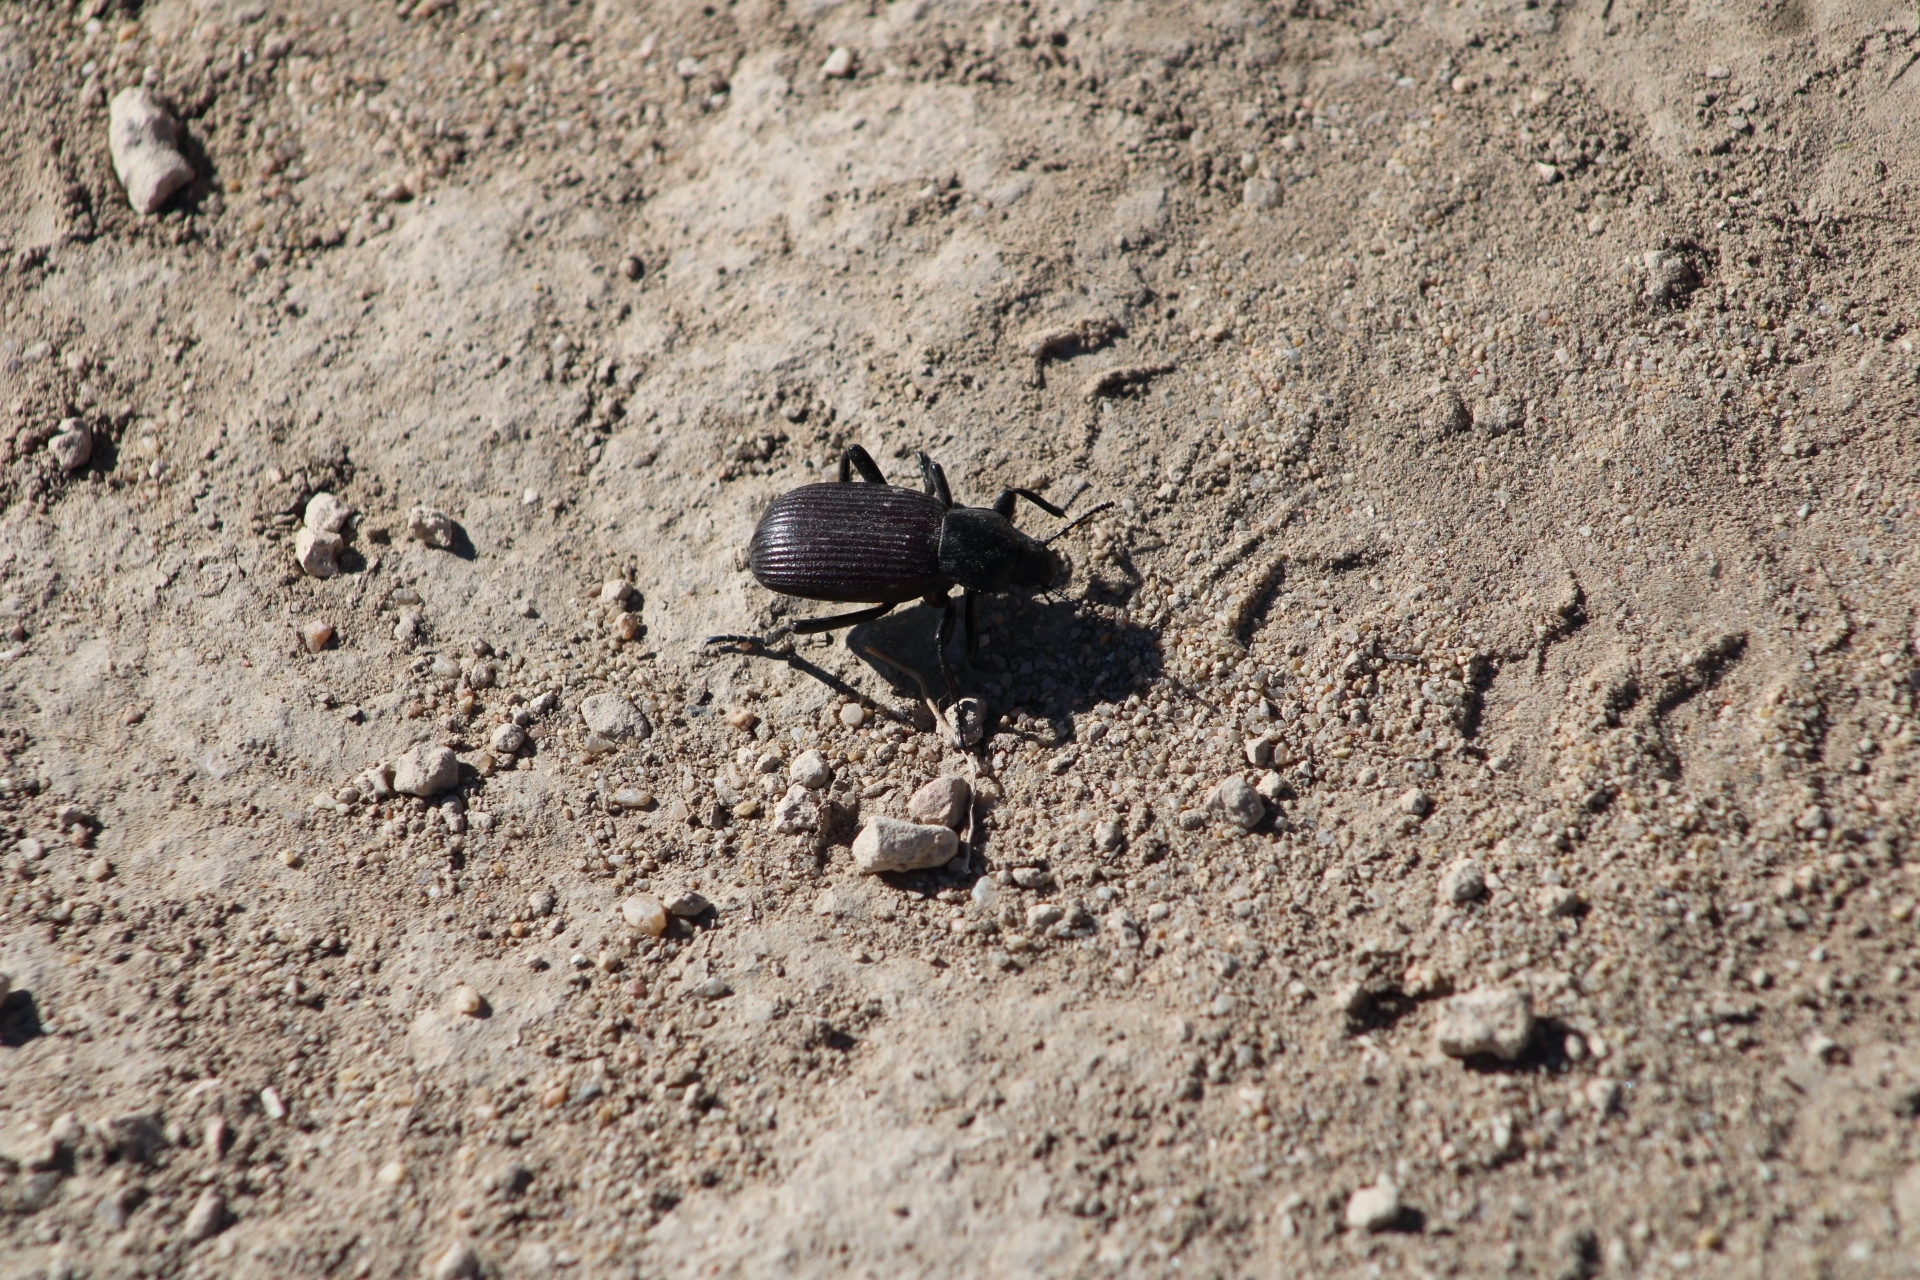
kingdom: Animalia
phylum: Arthropoda
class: Insecta
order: Coleoptera
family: Tenebrionidae
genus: Eleodes
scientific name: Eleodes obscura
